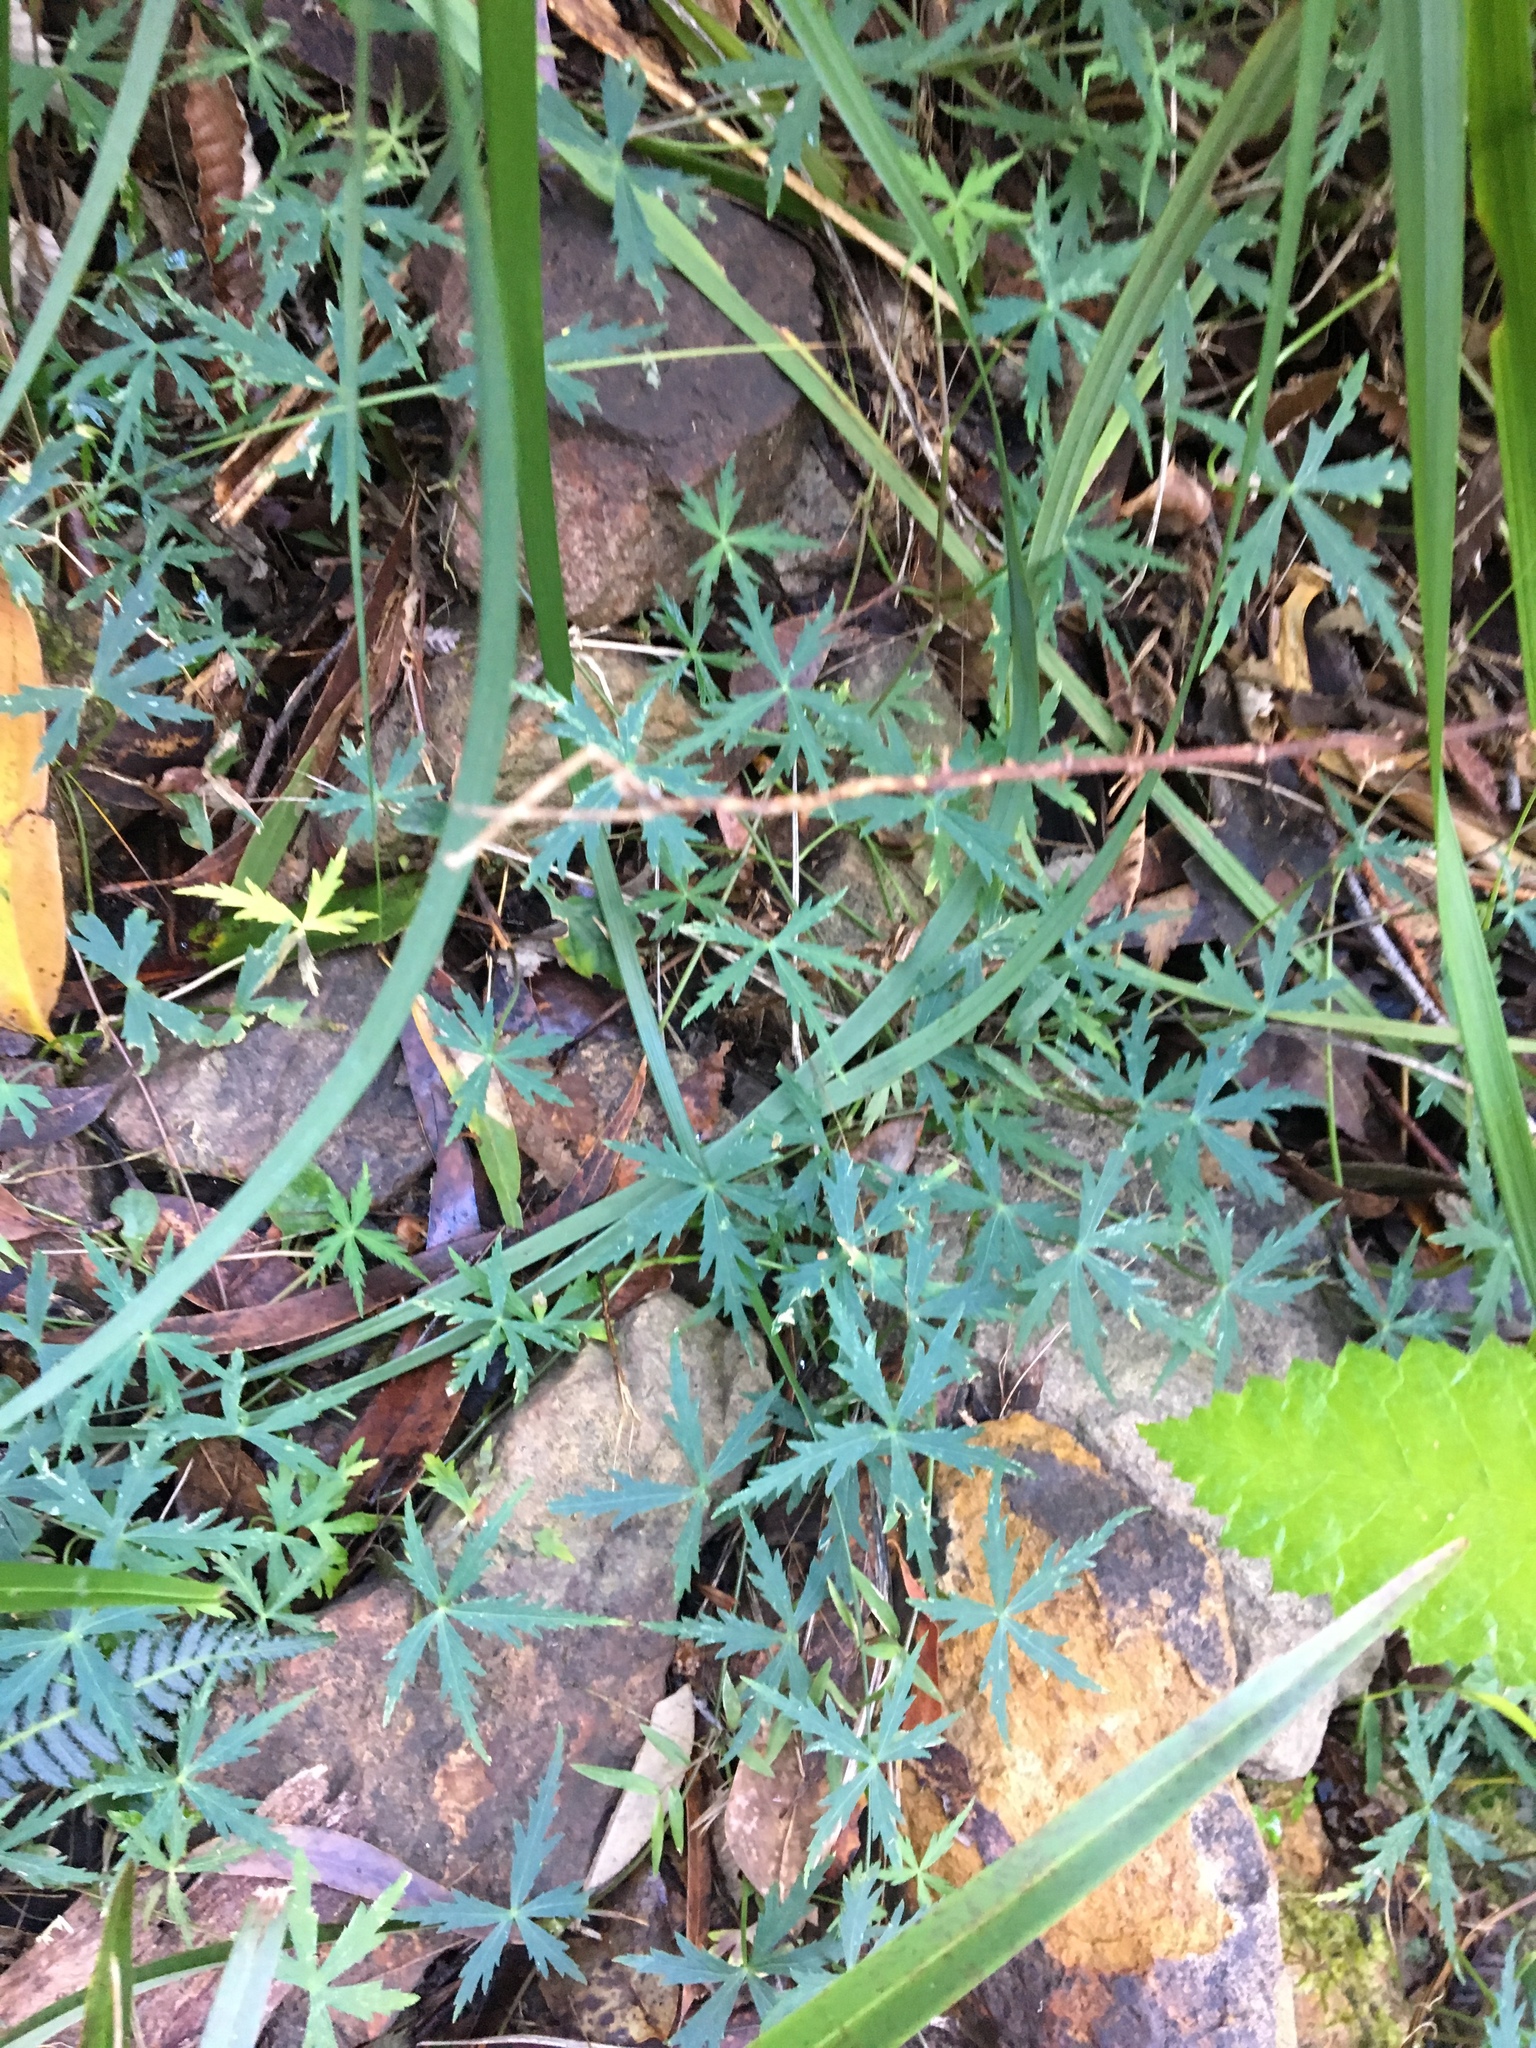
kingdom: Plantae
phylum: Tracheophyta
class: Magnoliopsida
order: Apiales
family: Araliaceae
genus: Hydrocotyle
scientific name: Hydrocotyle geraniifolia
